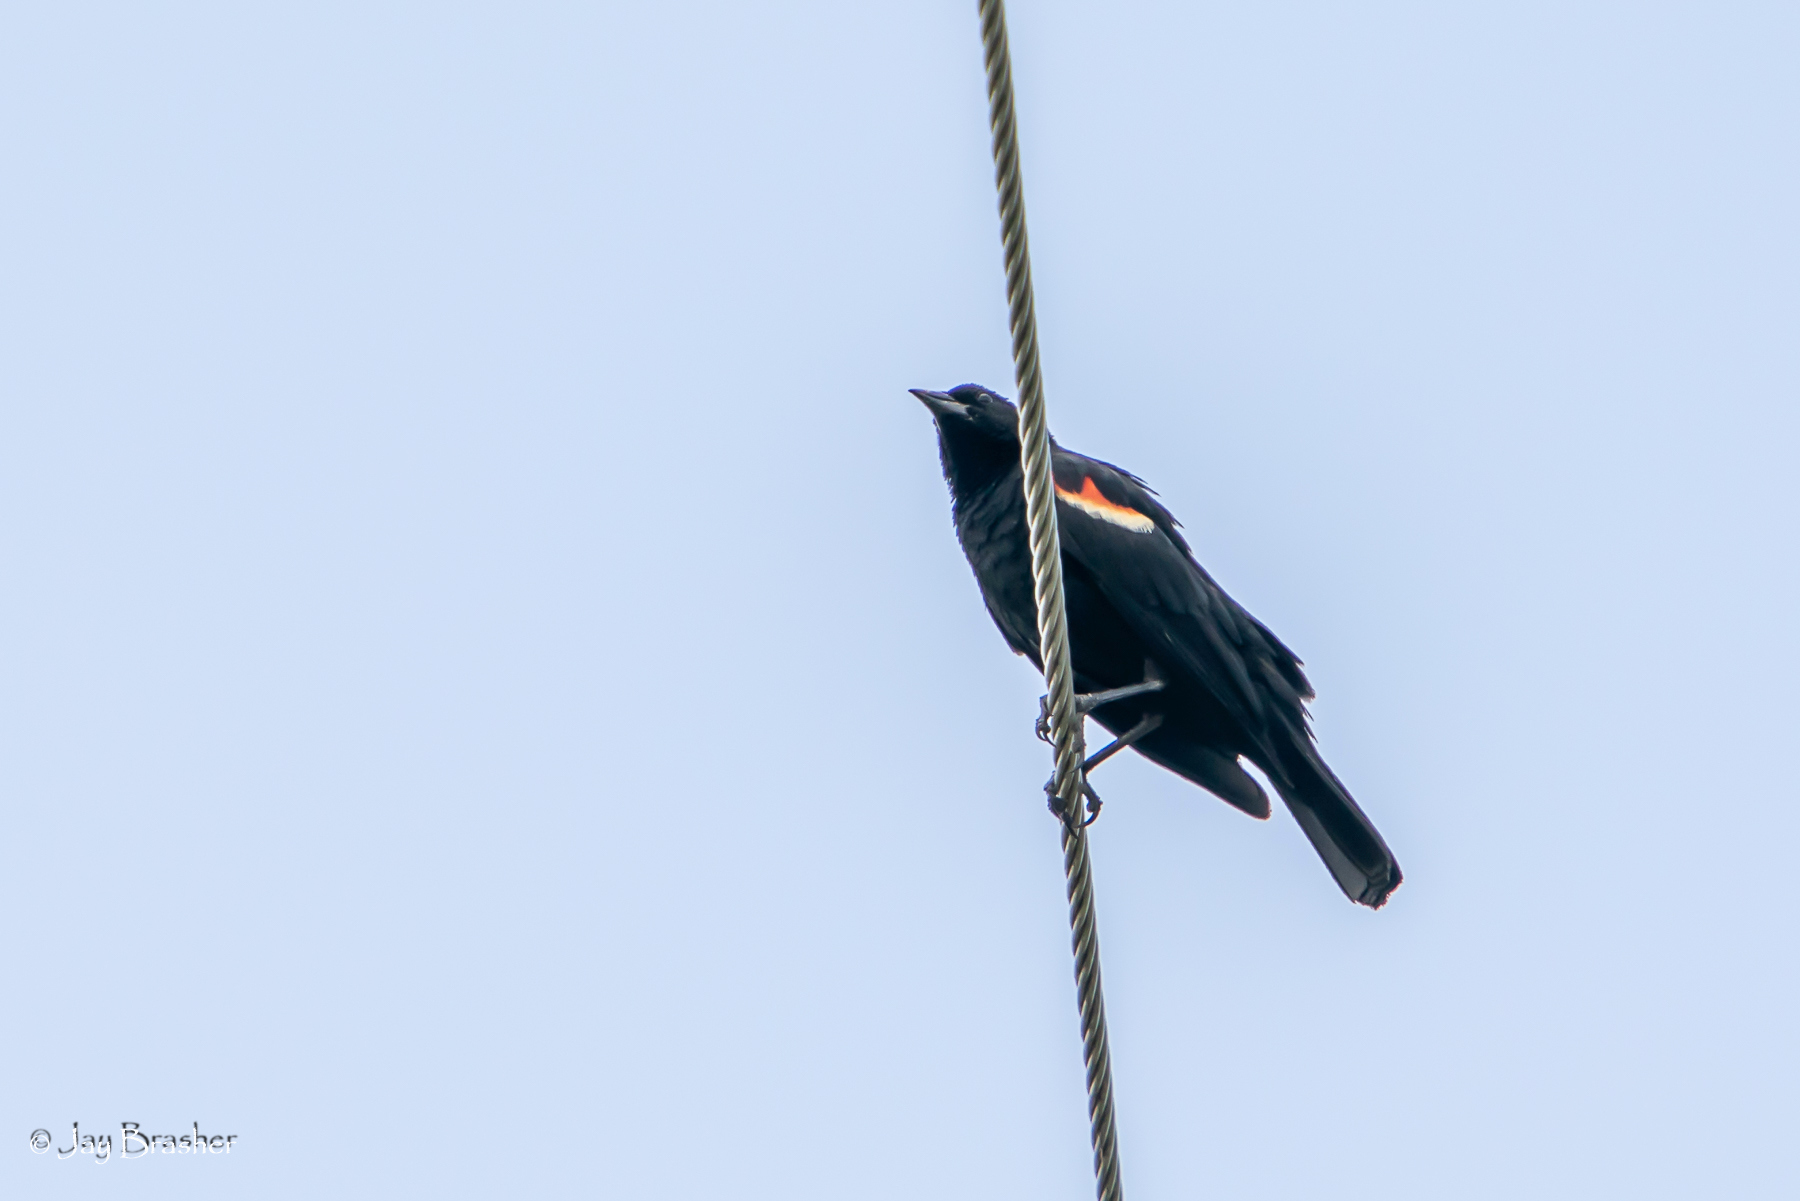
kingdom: Animalia
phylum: Chordata
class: Aves
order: Passeriformes
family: Icteridae
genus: Agelaius
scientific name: Agelaius phoeniceus
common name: Red-winged blackbird
